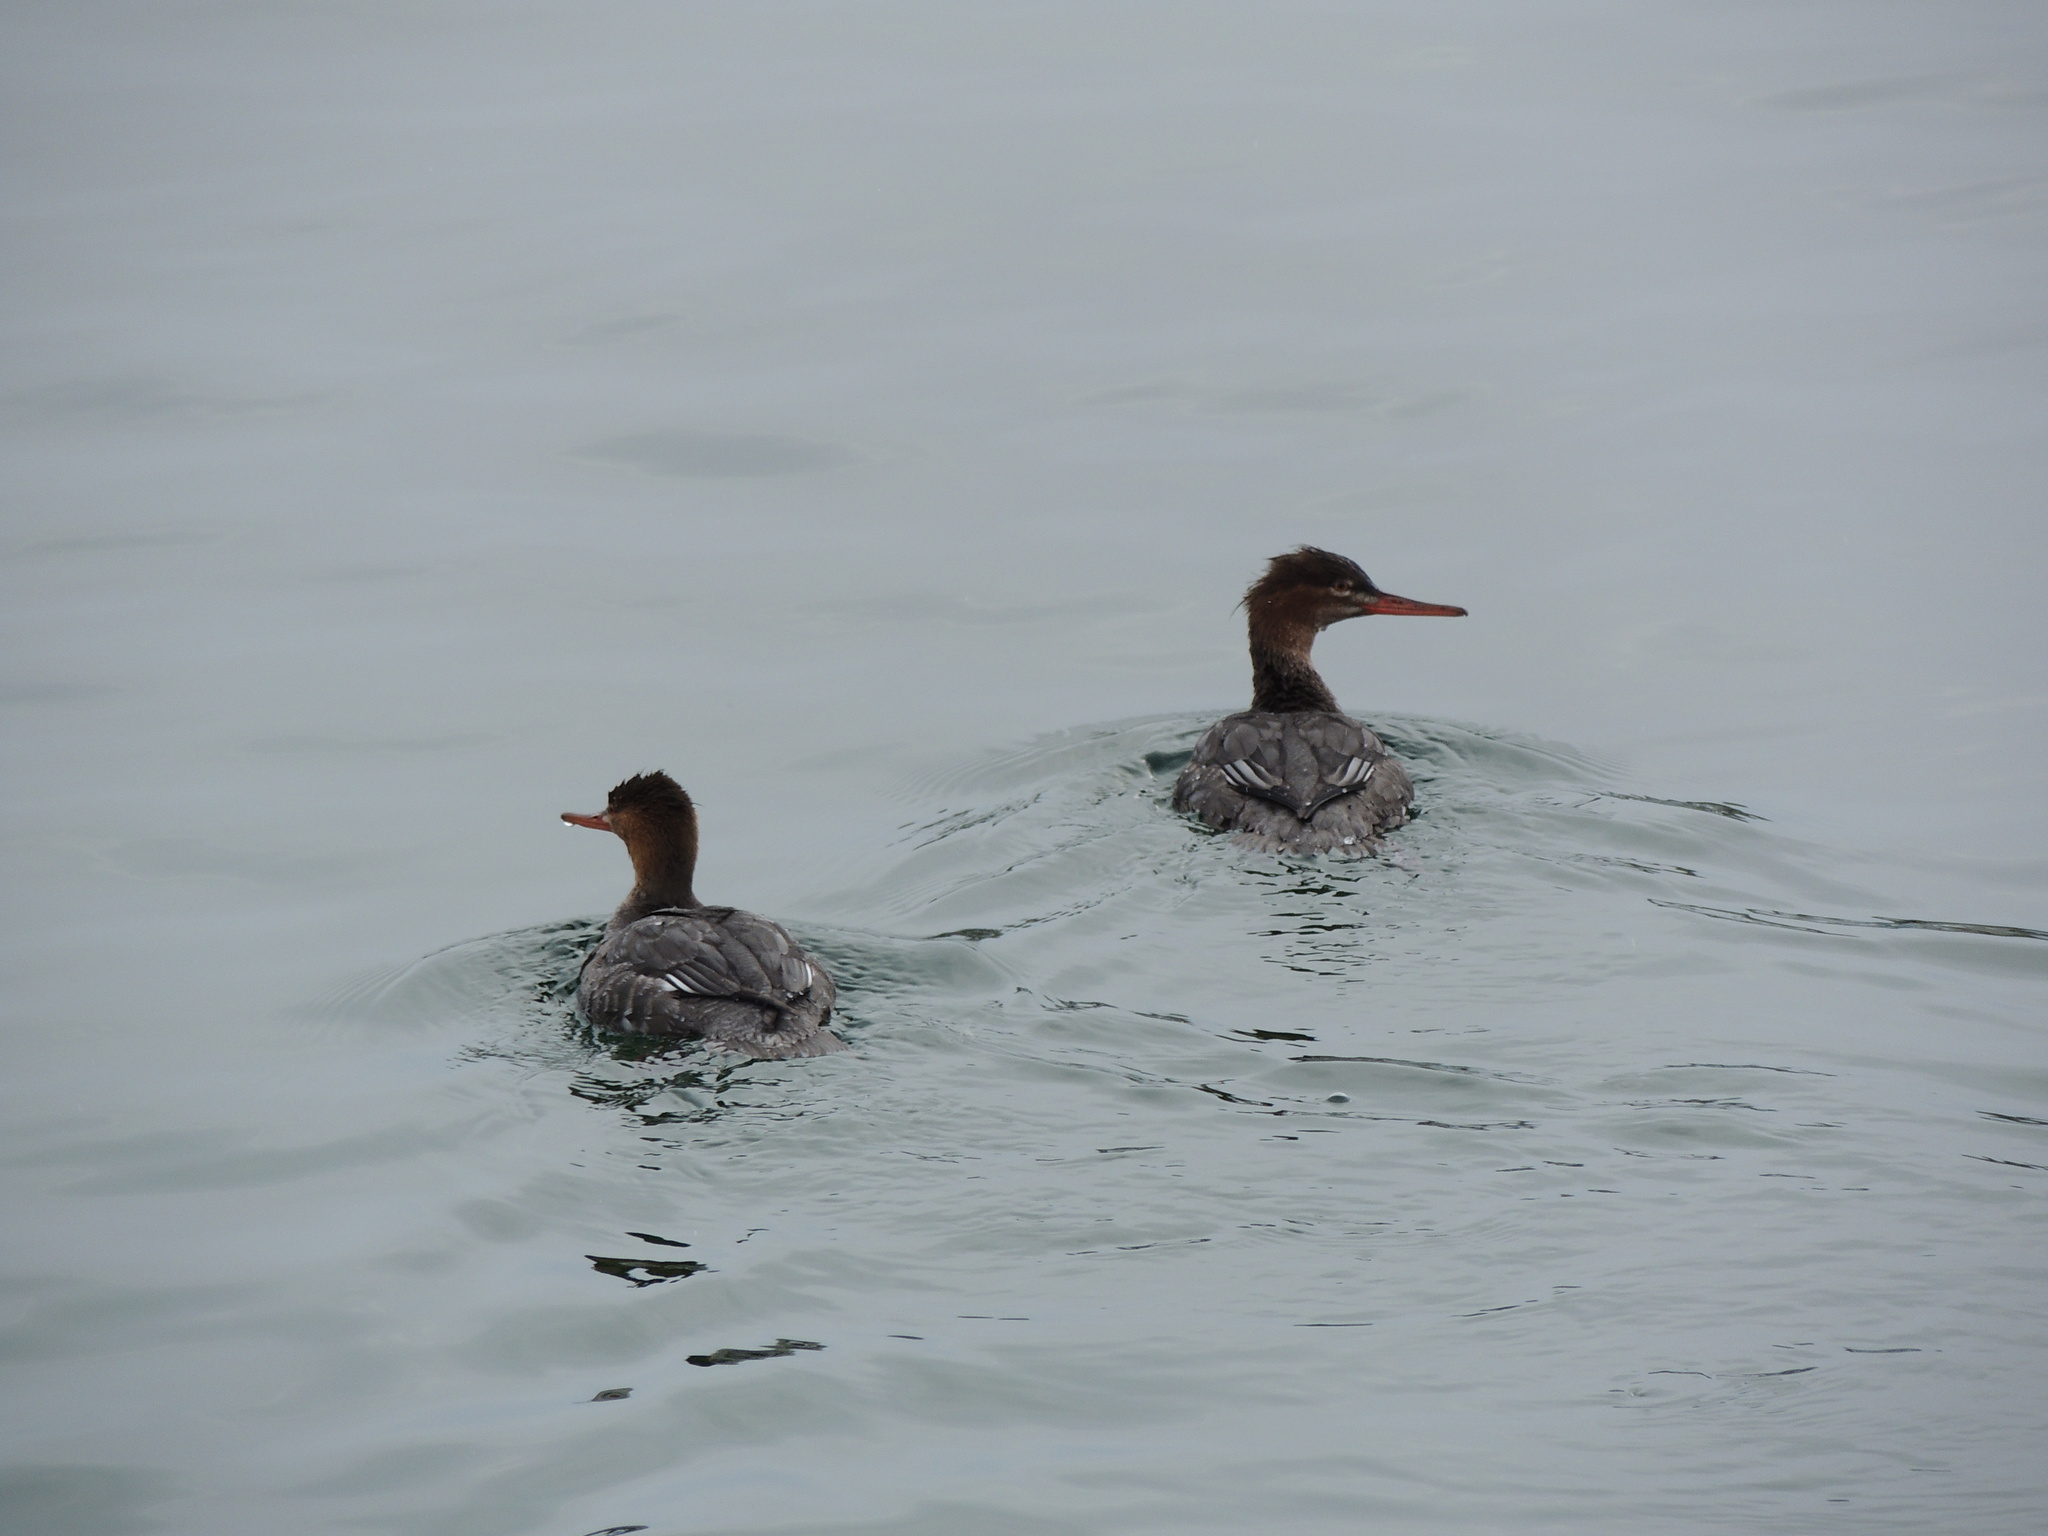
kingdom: Animalia
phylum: Chordata
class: Aves
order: Anseriformes
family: Anatidae
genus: Mergus
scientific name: Mergus serrator
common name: Red-breasted merganser
